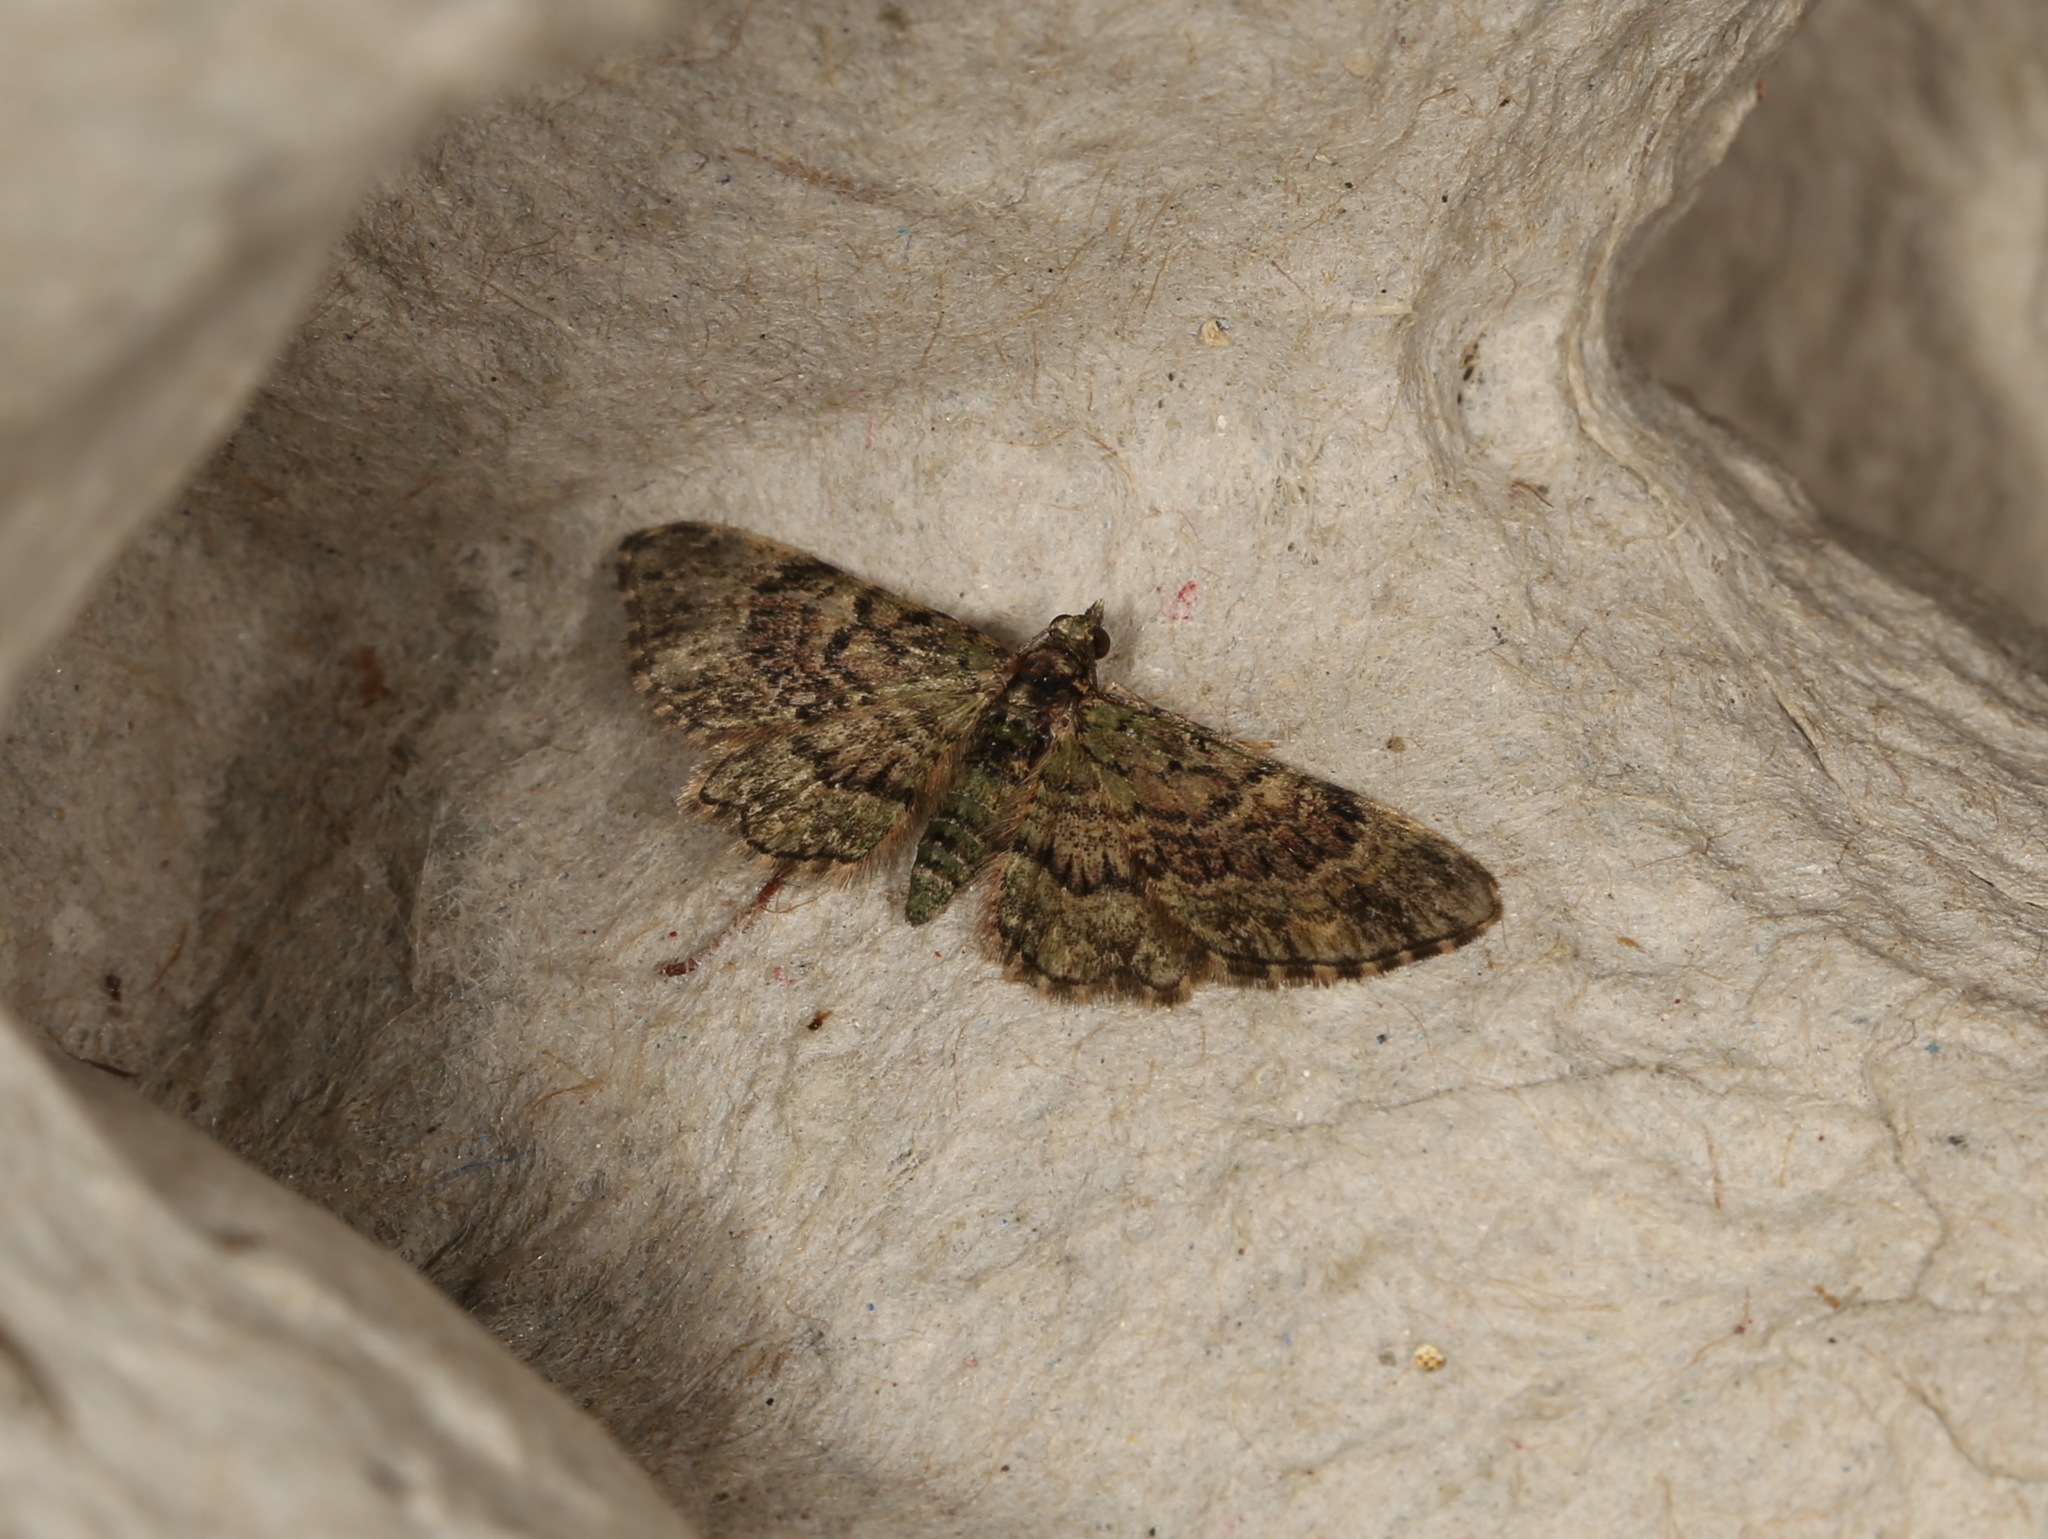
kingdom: Animalia
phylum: Arthropoda
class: Insecta
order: Lepidoptera
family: Geometridae
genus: Chloroclystis
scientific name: Chloroclystis catastreptes
